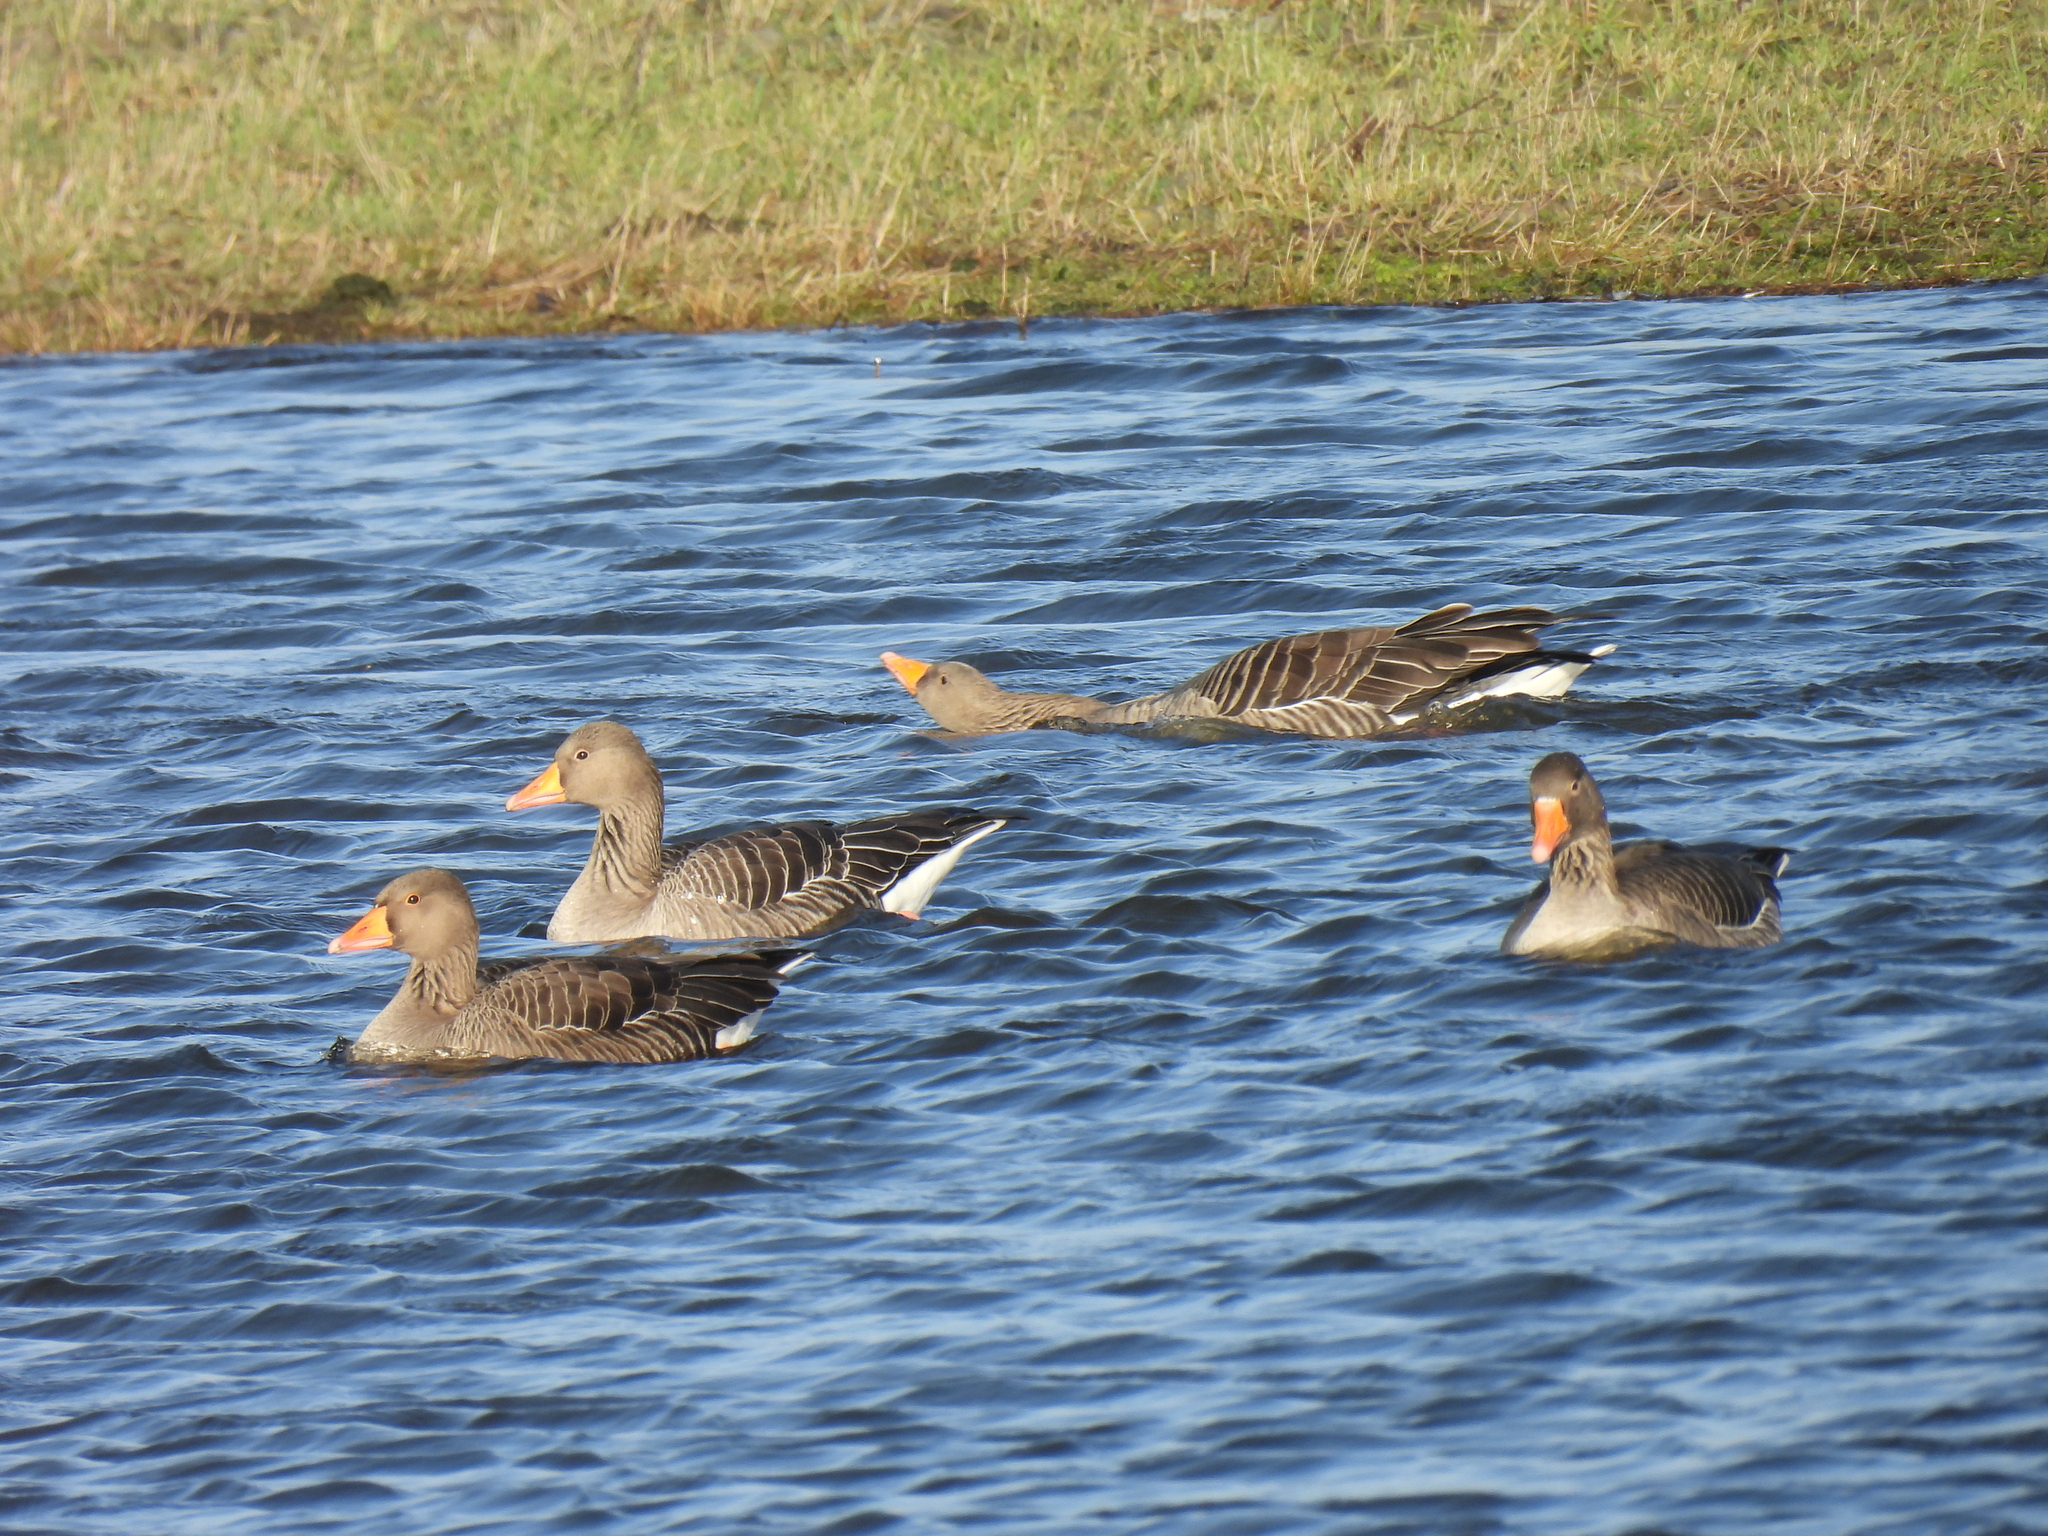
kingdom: Animalia
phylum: Chordata
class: Aves
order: Anseriformes
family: Anatidae
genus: Anser
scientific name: Anser anser
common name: Greylag goose
